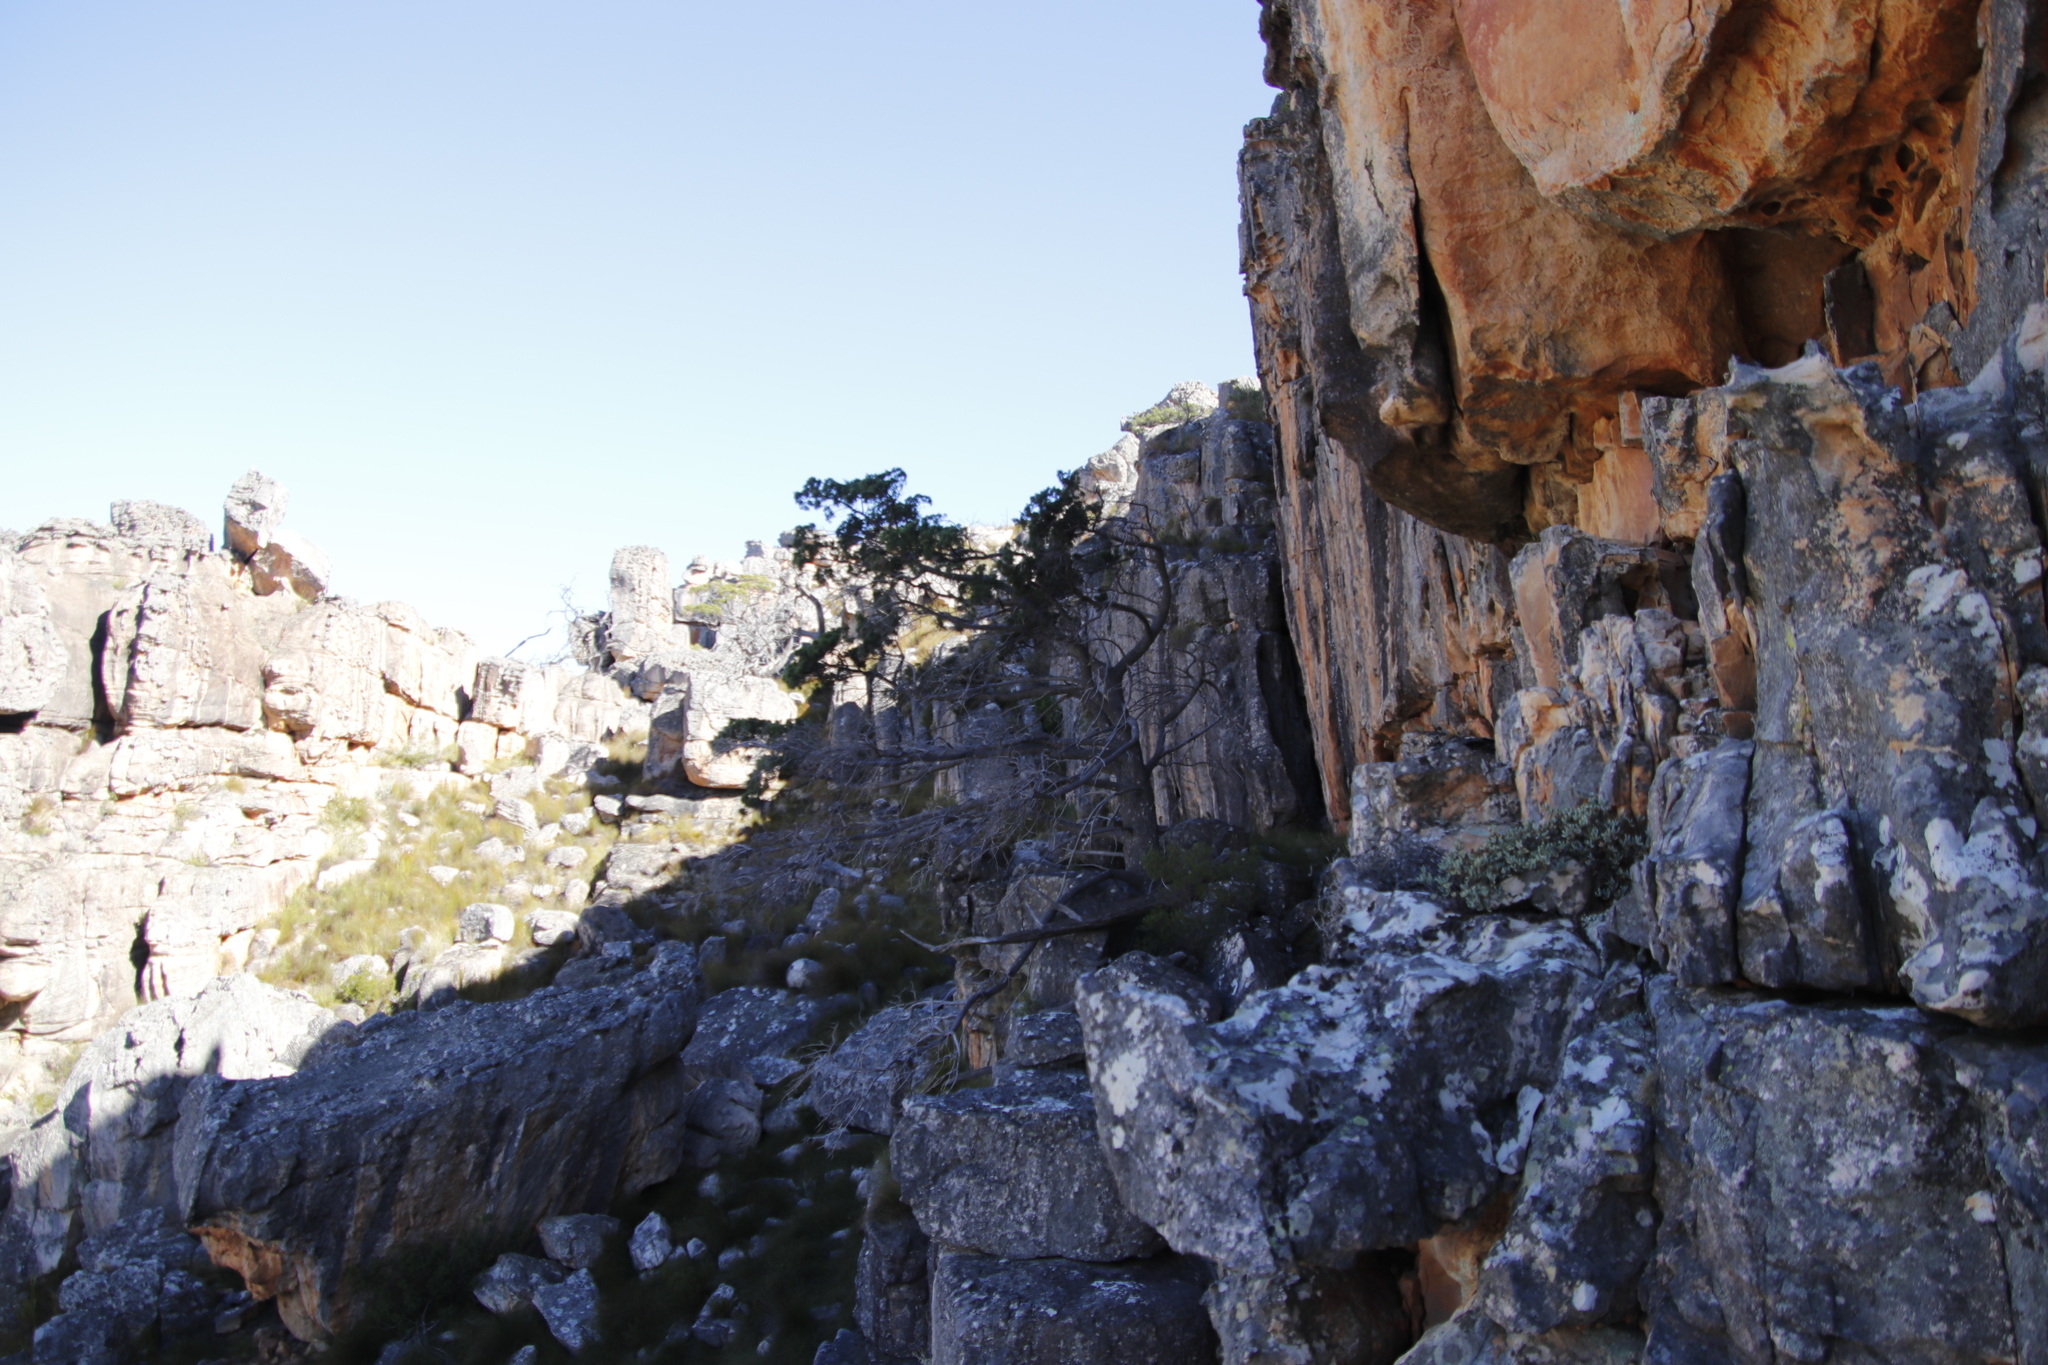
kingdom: Plantae
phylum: Tracheophyta
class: Pinopsida
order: Pinales
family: Cupressaceae
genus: Widdringtonia
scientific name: Widdringtonia nodiflora
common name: Cape cypress
